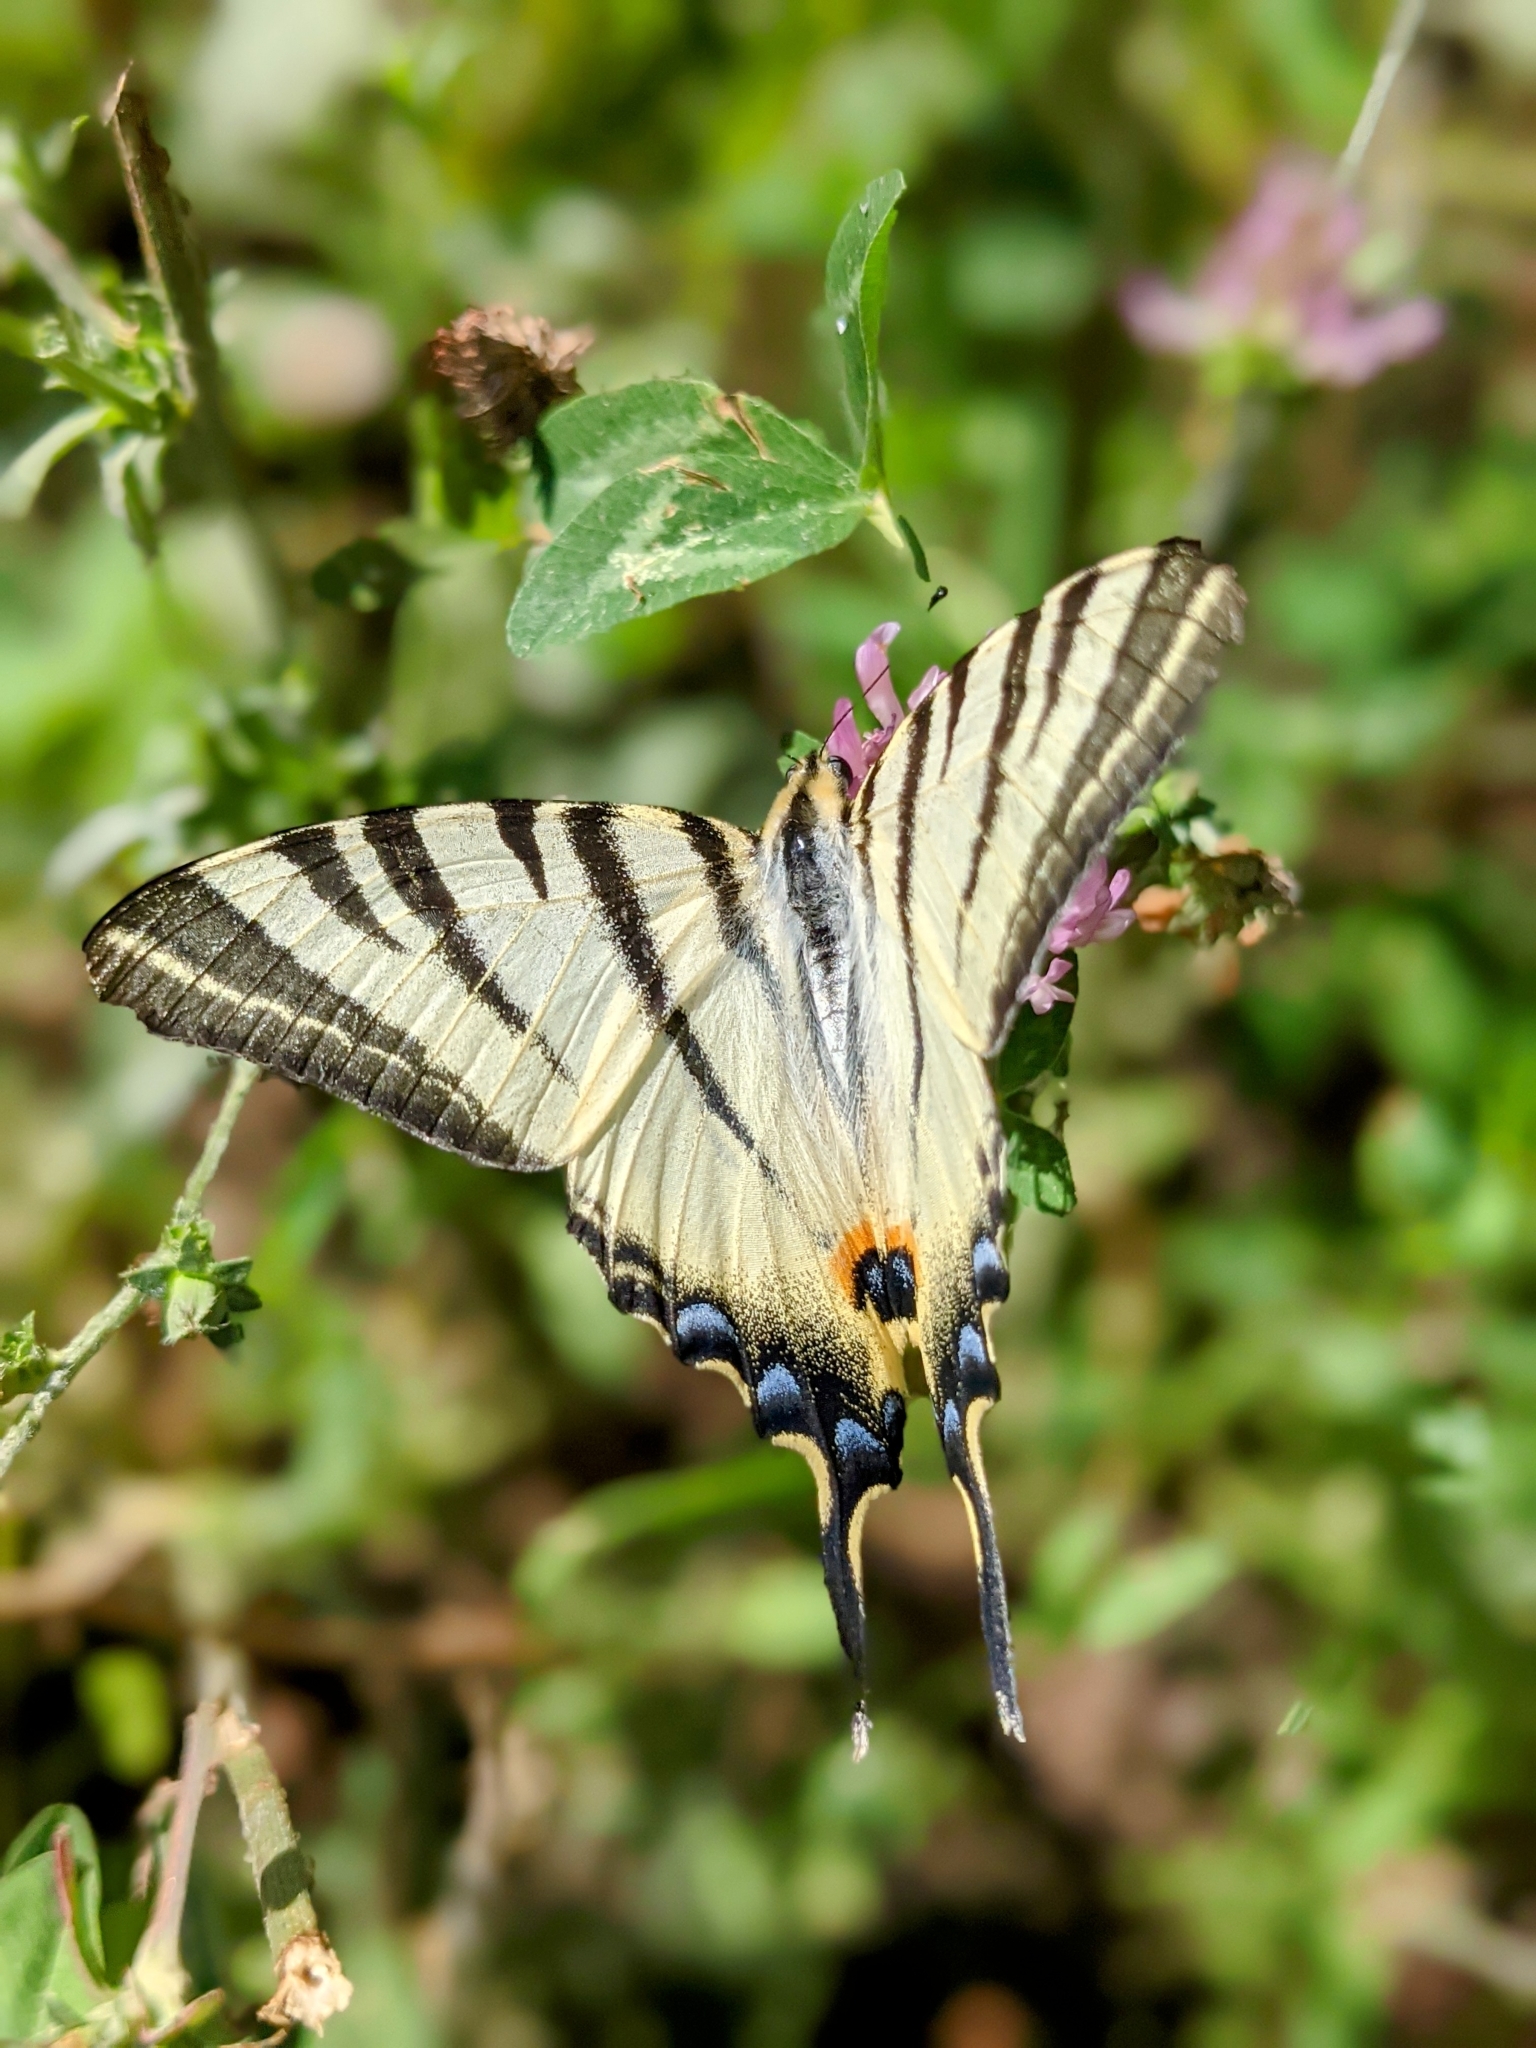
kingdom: Animalia
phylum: Arthropoda
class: Insecta
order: Lepidoptera
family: Papilionidae
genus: Iphiclides
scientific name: Iphiclides podalirius
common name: Scarce swallowtail
